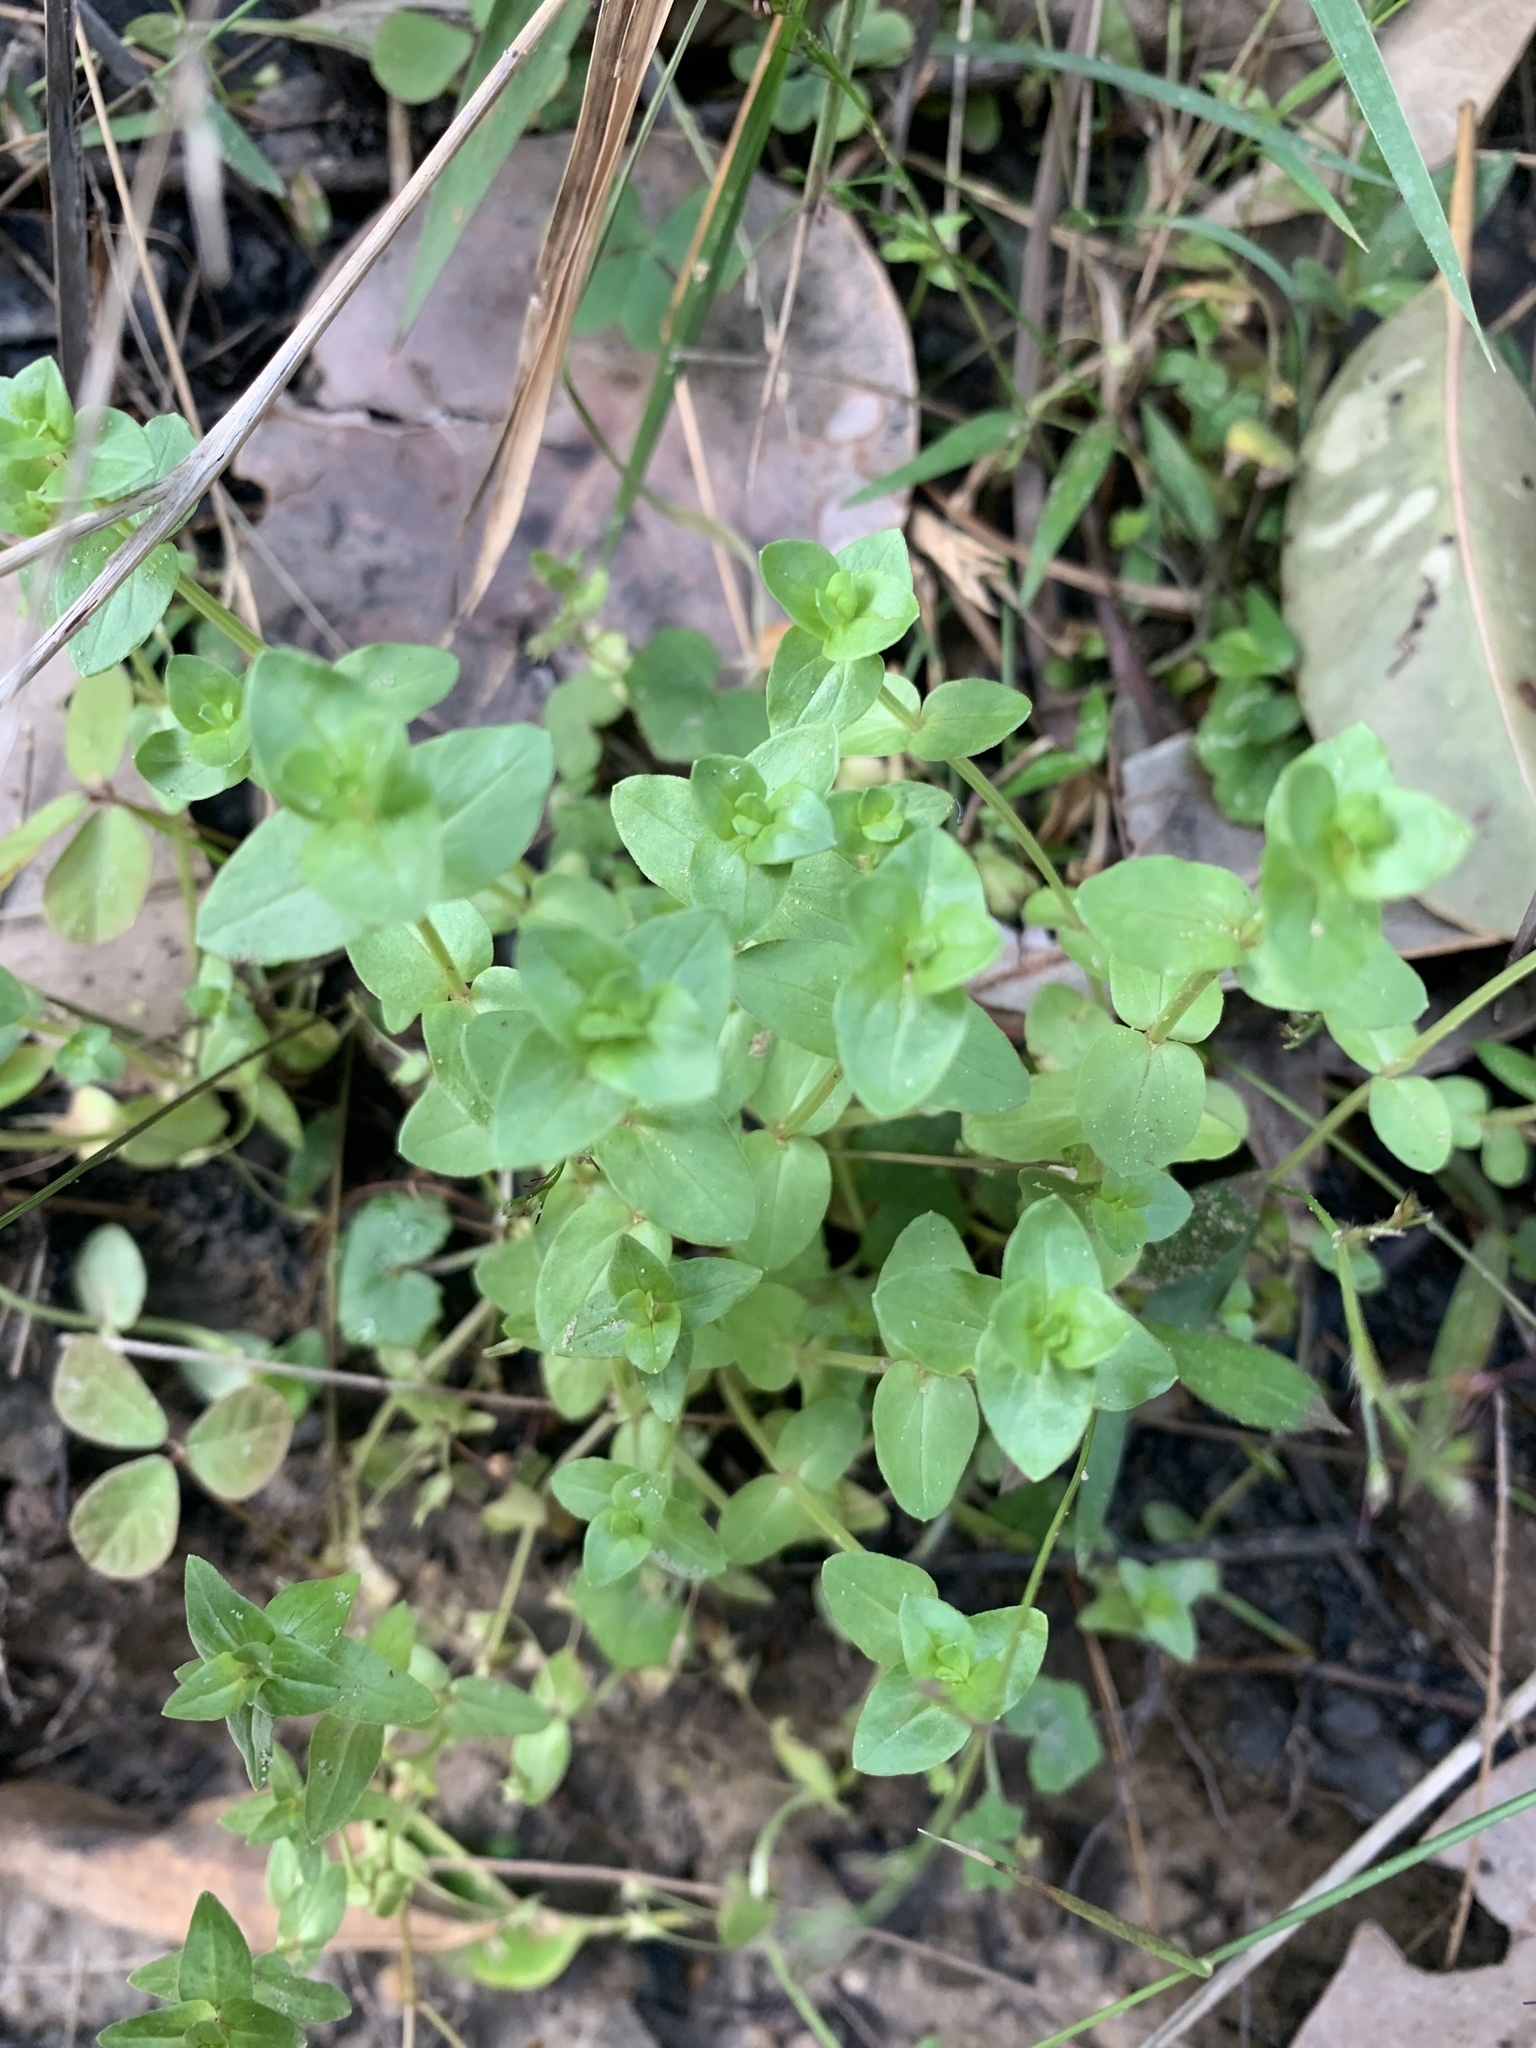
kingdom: Plantae
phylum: Tracheophyta
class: Magnoliopsida
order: Ericales
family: Primulaceae
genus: Lysimachia
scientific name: Lysimachia arvensis
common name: Scarlet pimpernel
